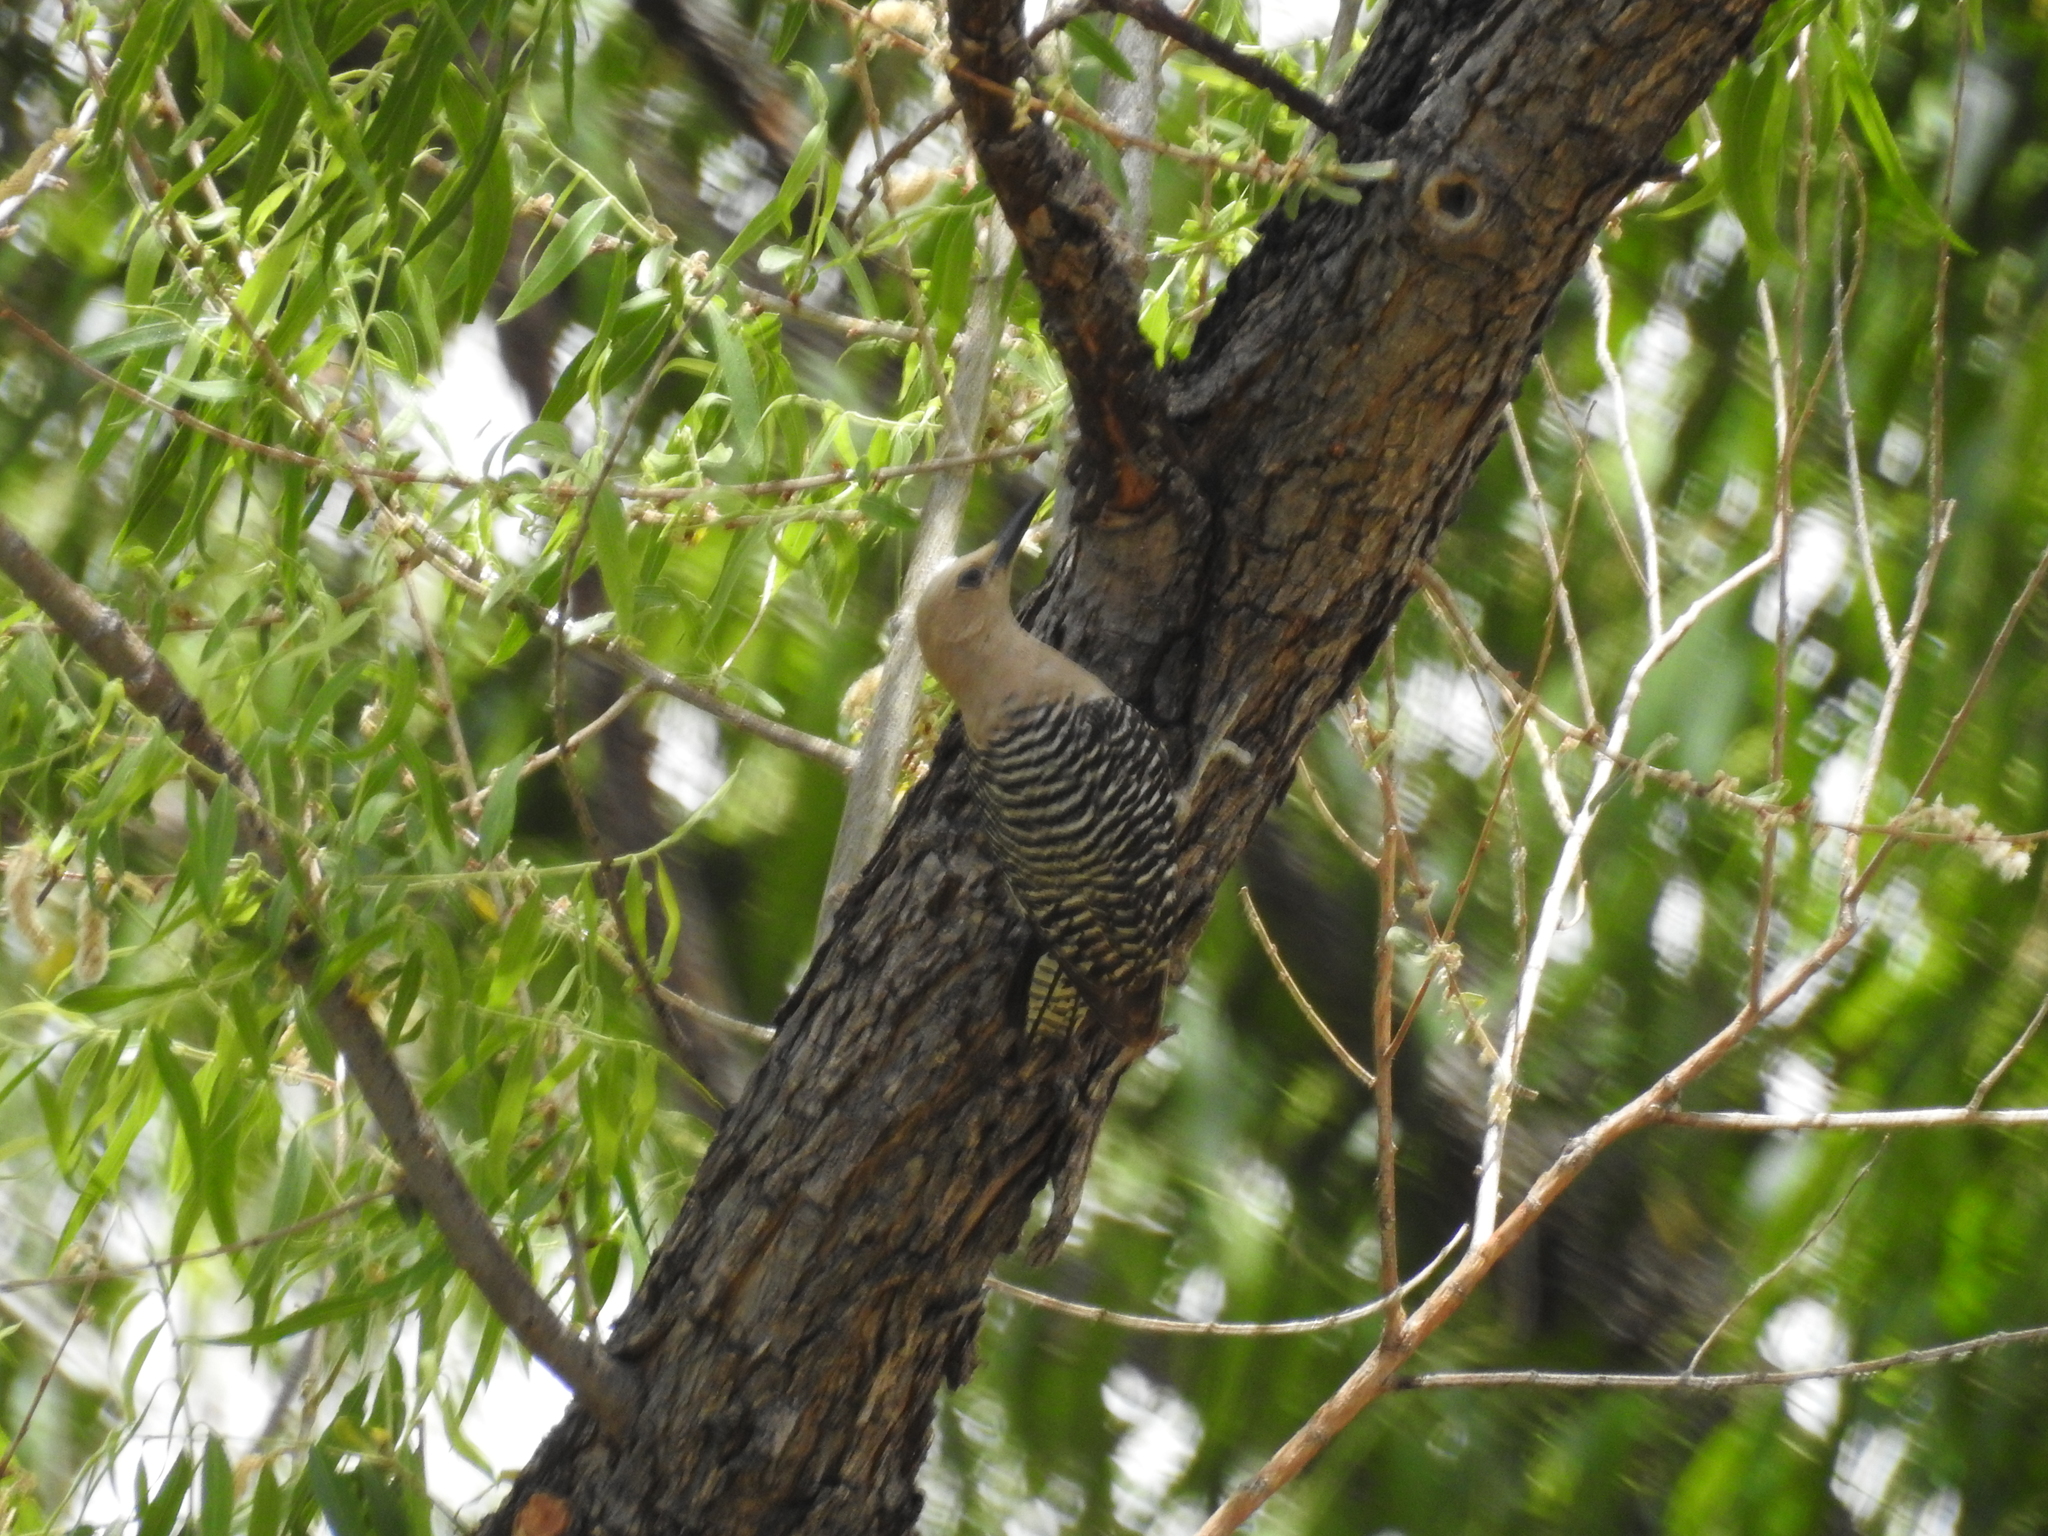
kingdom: Animalia
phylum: Chordata
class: Aves
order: Piciformes
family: Picidae
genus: Melanerpes
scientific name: Melanerpes uropygialis
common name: Gila woodpecker
